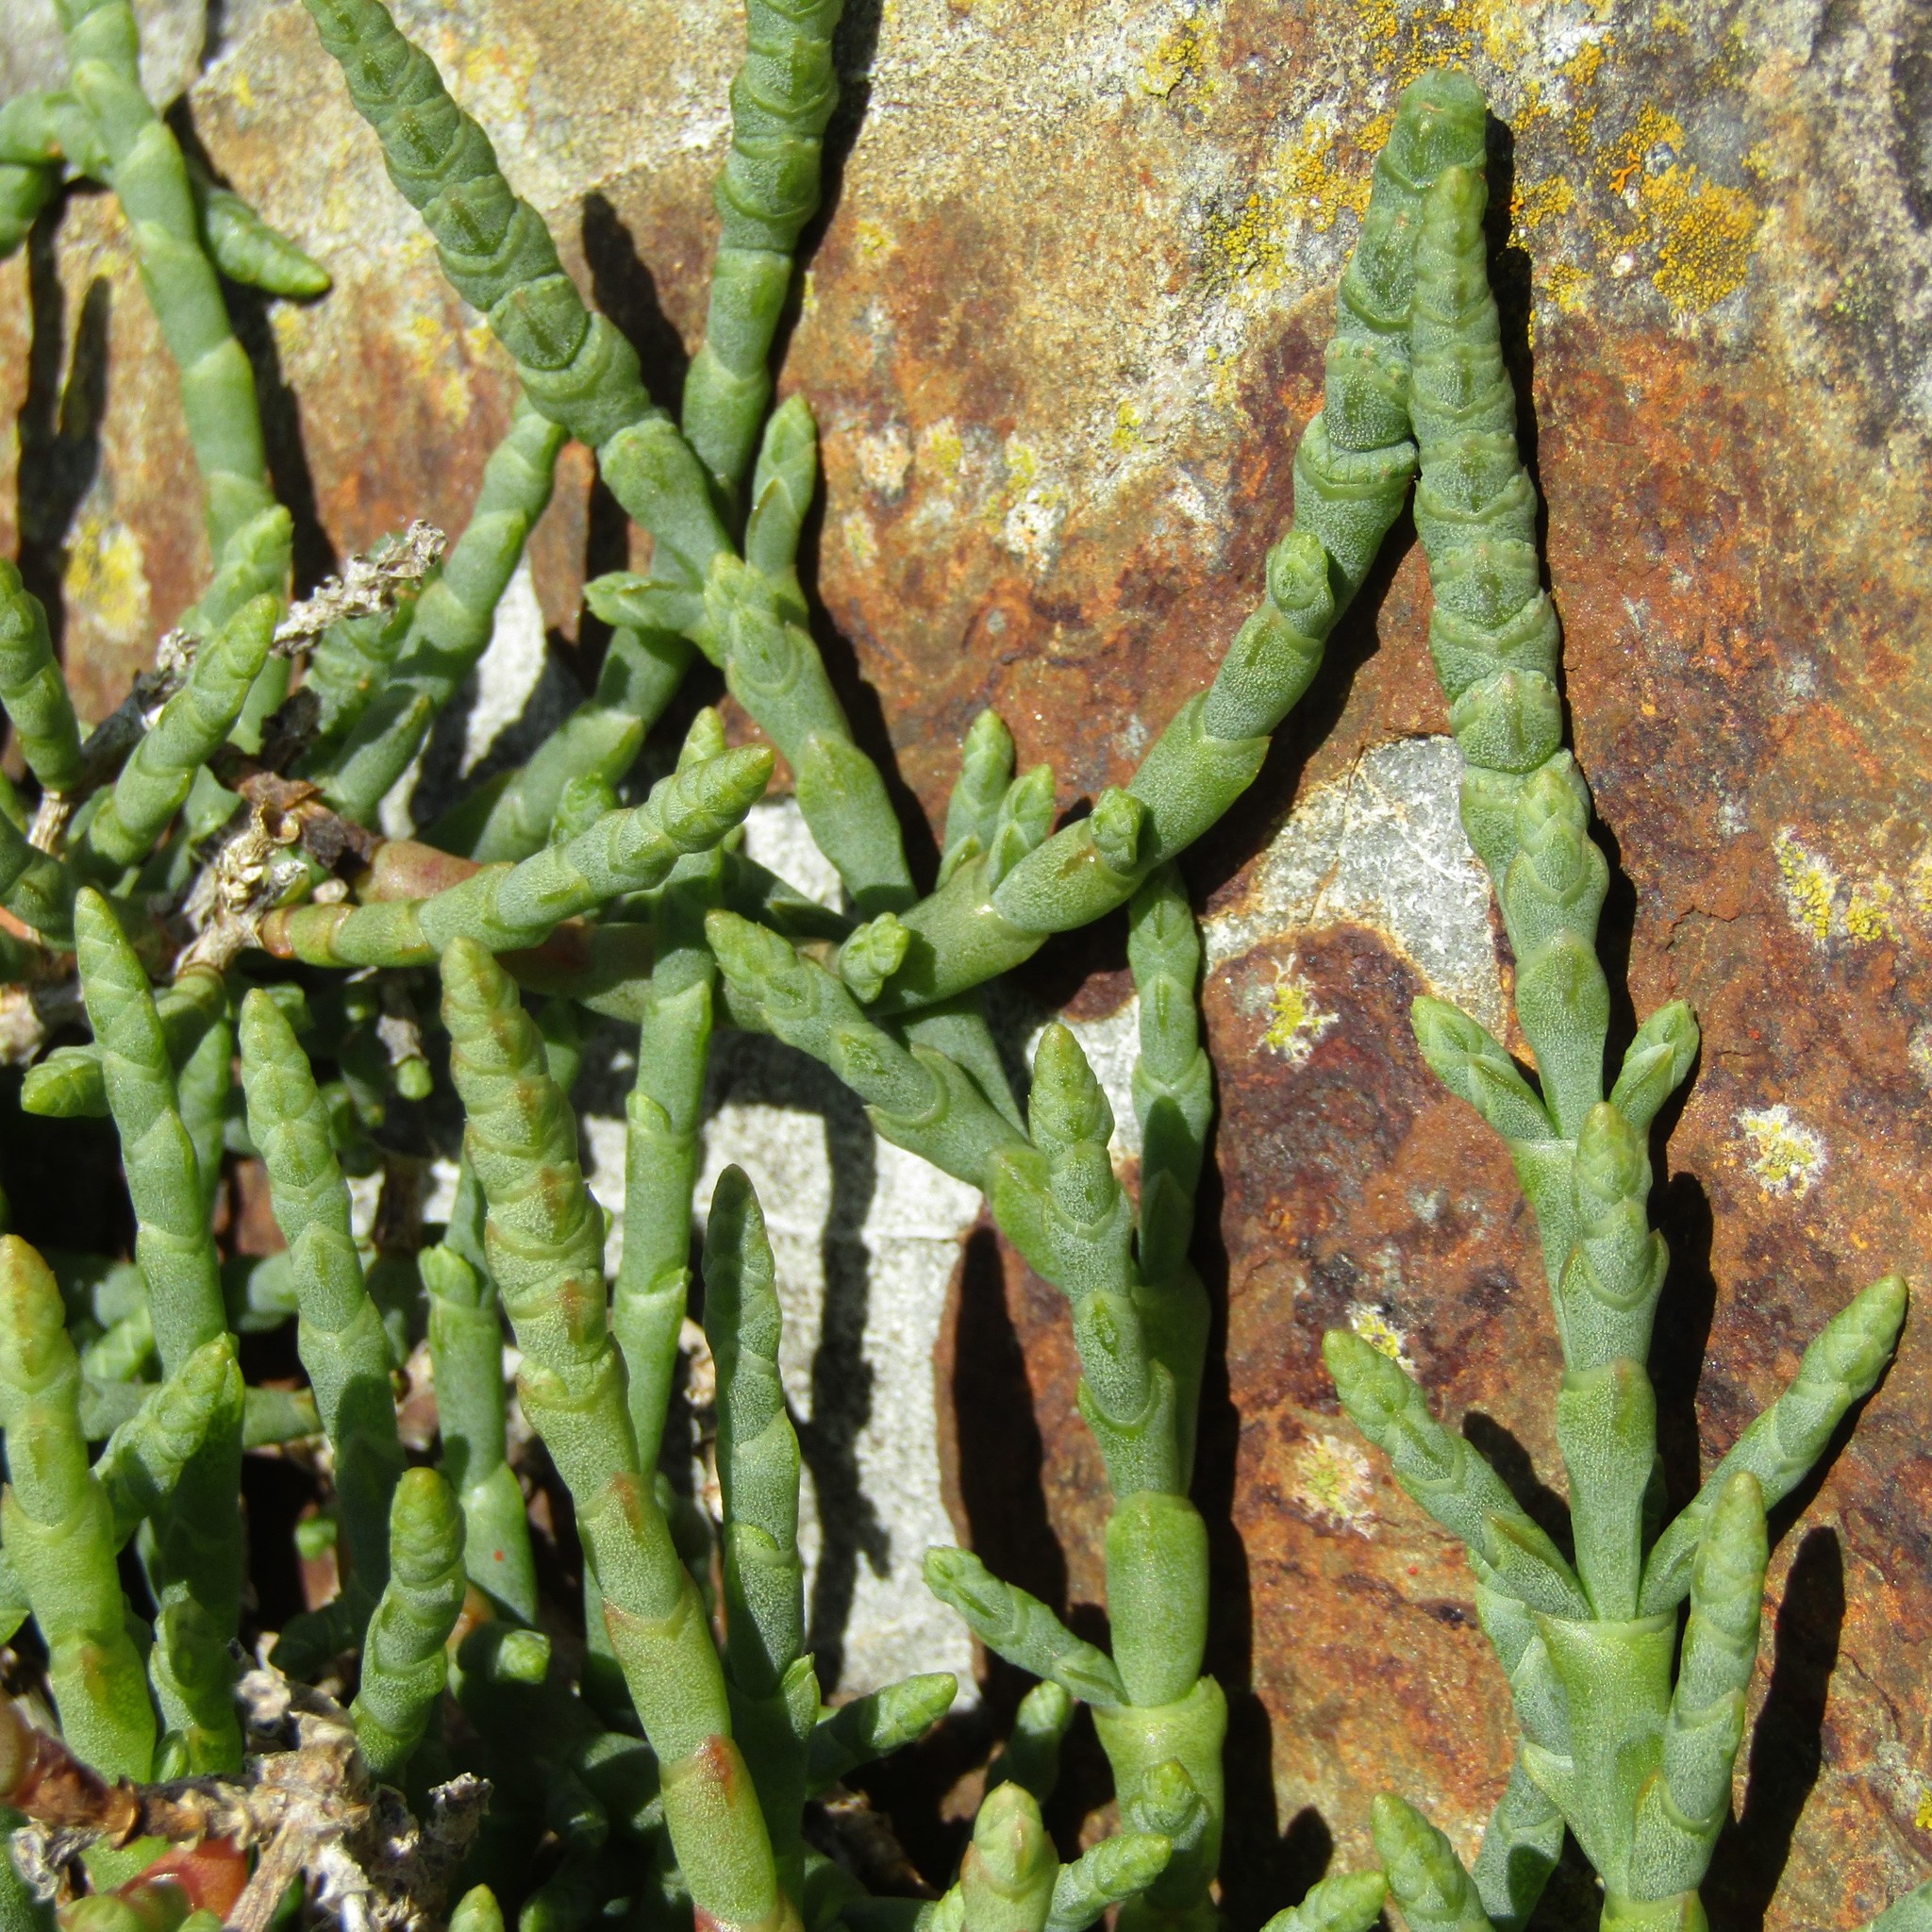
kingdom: Plantae
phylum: Tracheophyta
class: Magnoliopsida
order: Caryophyllales
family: Amaranthaceae
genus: Salicornia
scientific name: Salicornia quinqueflora
